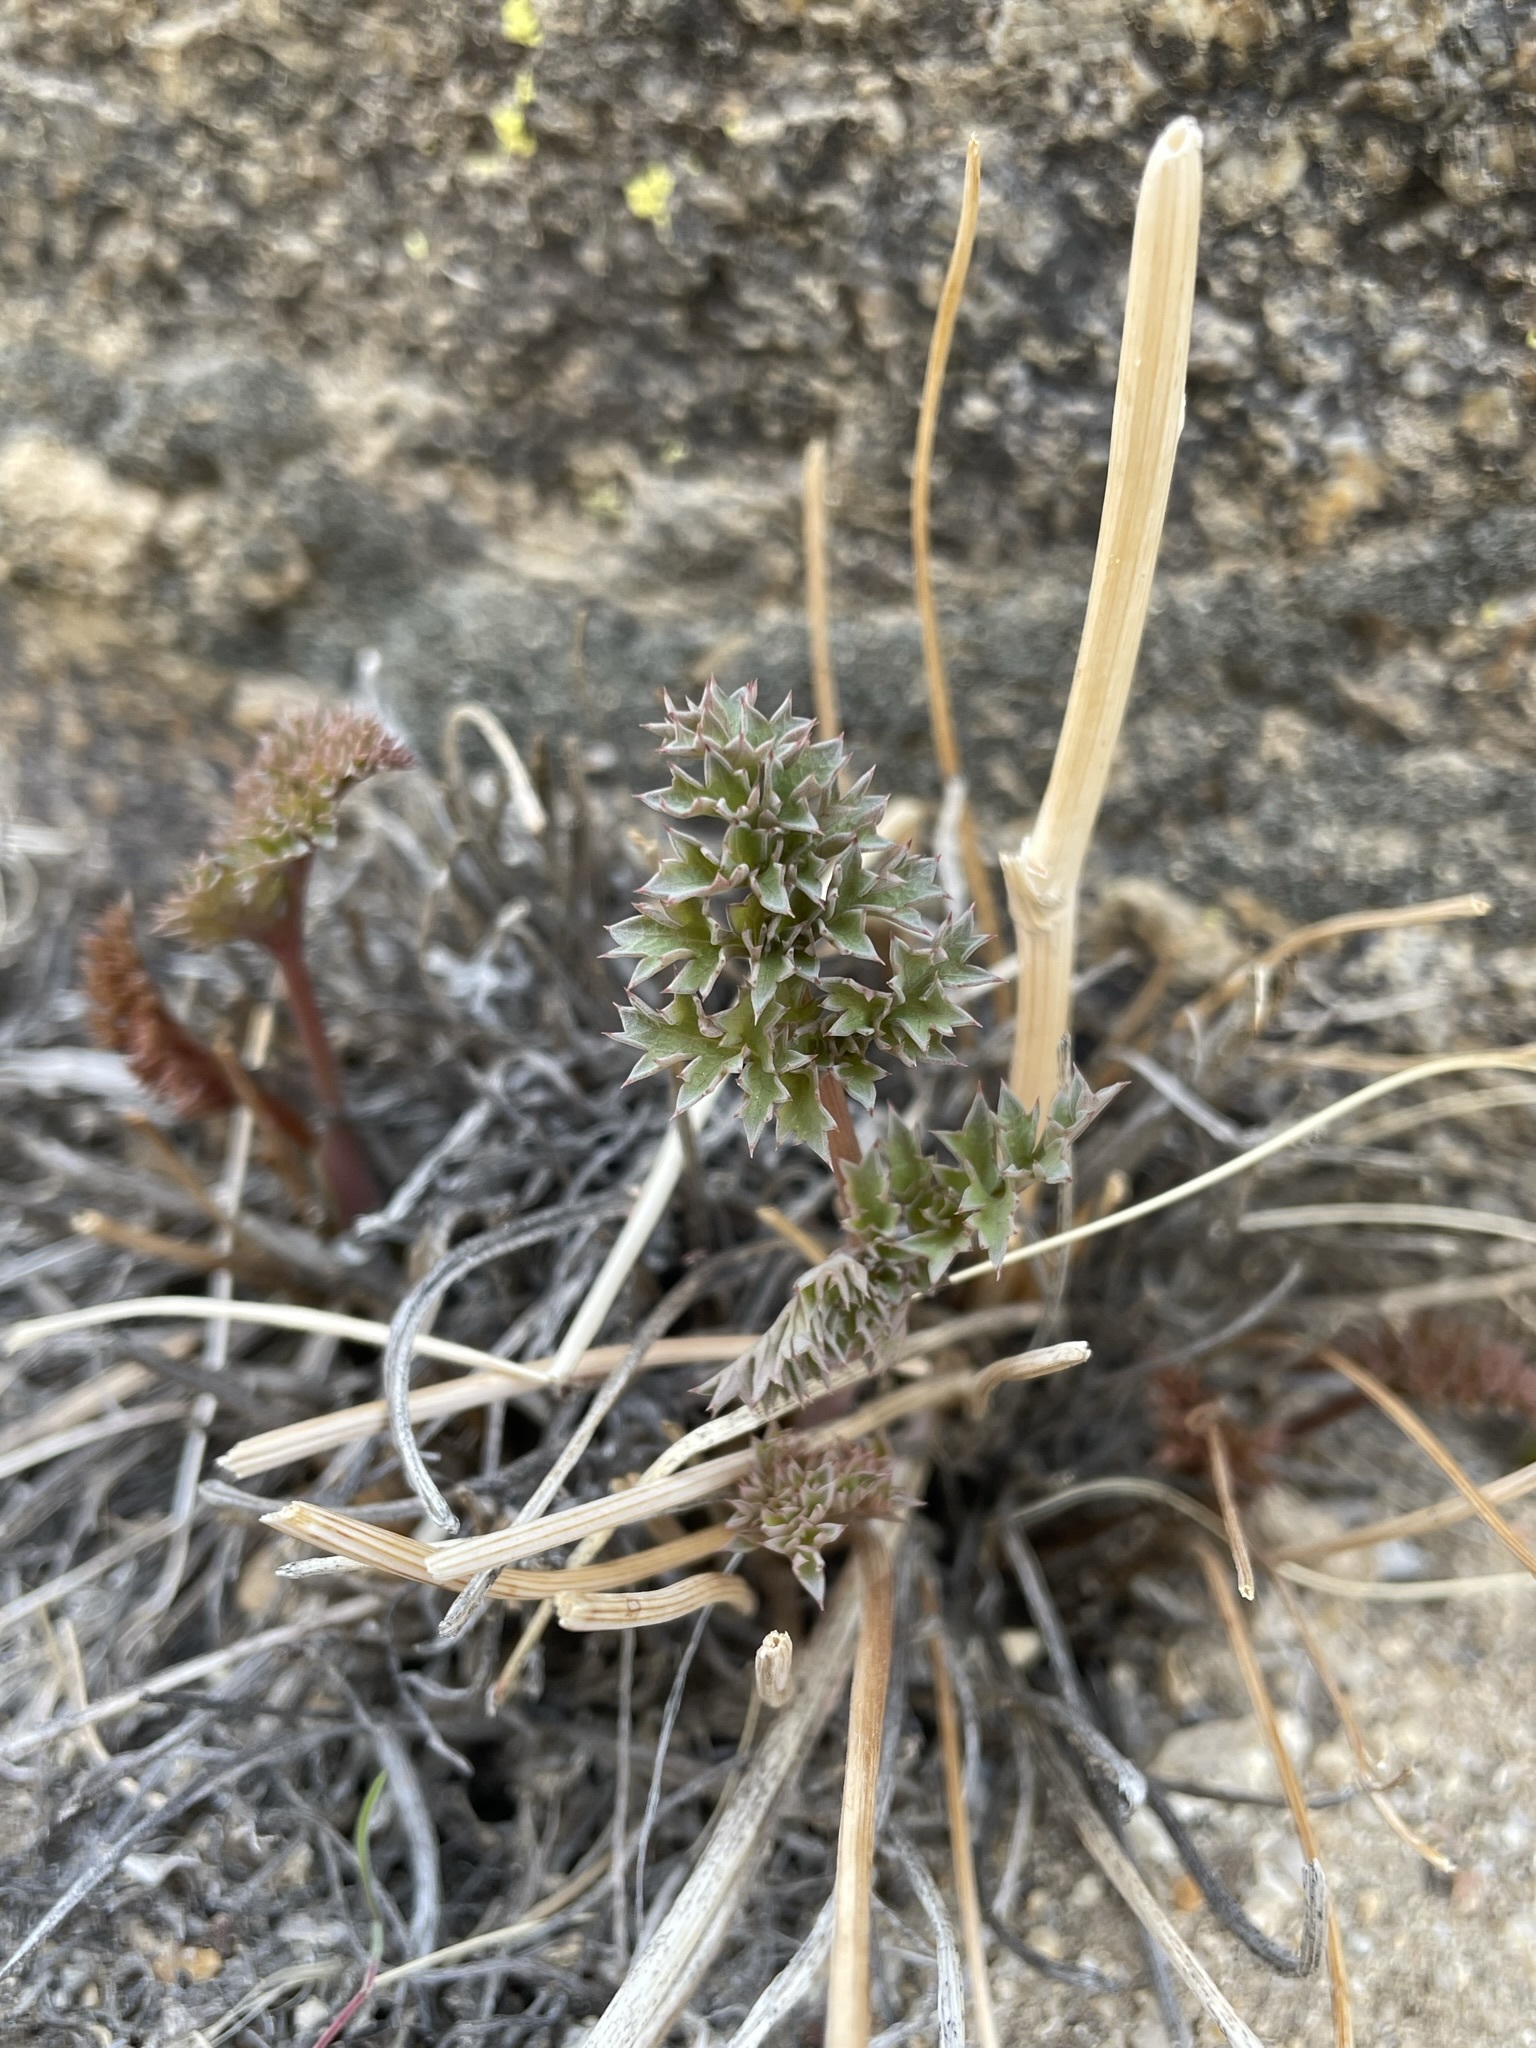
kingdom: Plantae
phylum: Tracheophyta
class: Magnoliopsida
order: Apiales
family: Apiaceae
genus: Lomatium
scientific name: Lomatium rigidum
